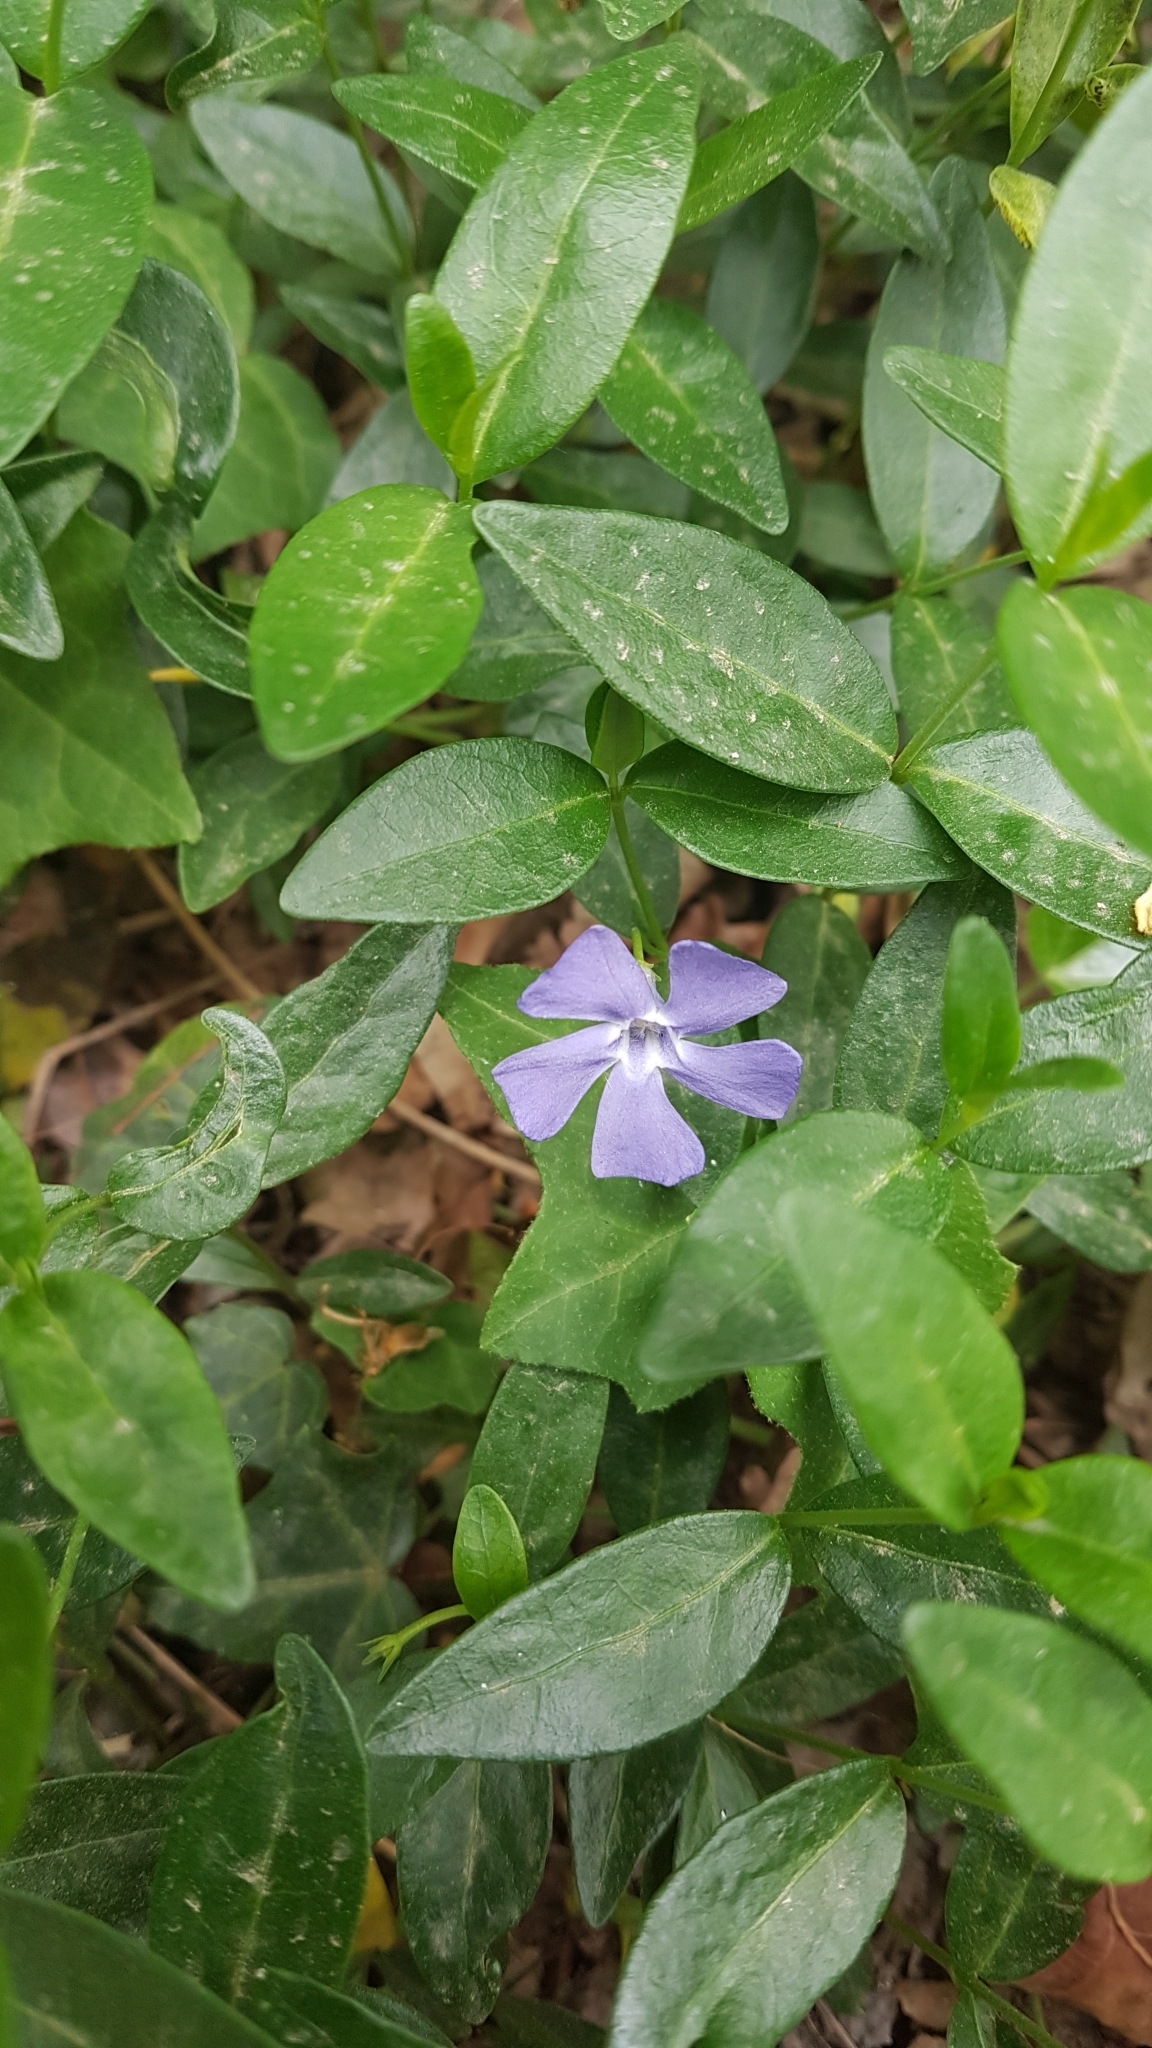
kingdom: Plantae
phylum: Tracheophyta
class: Magnoliopsida
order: Gentianales
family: Apocynaceae
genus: Vinca
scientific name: Vinca minor
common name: Lesser periwinkle
